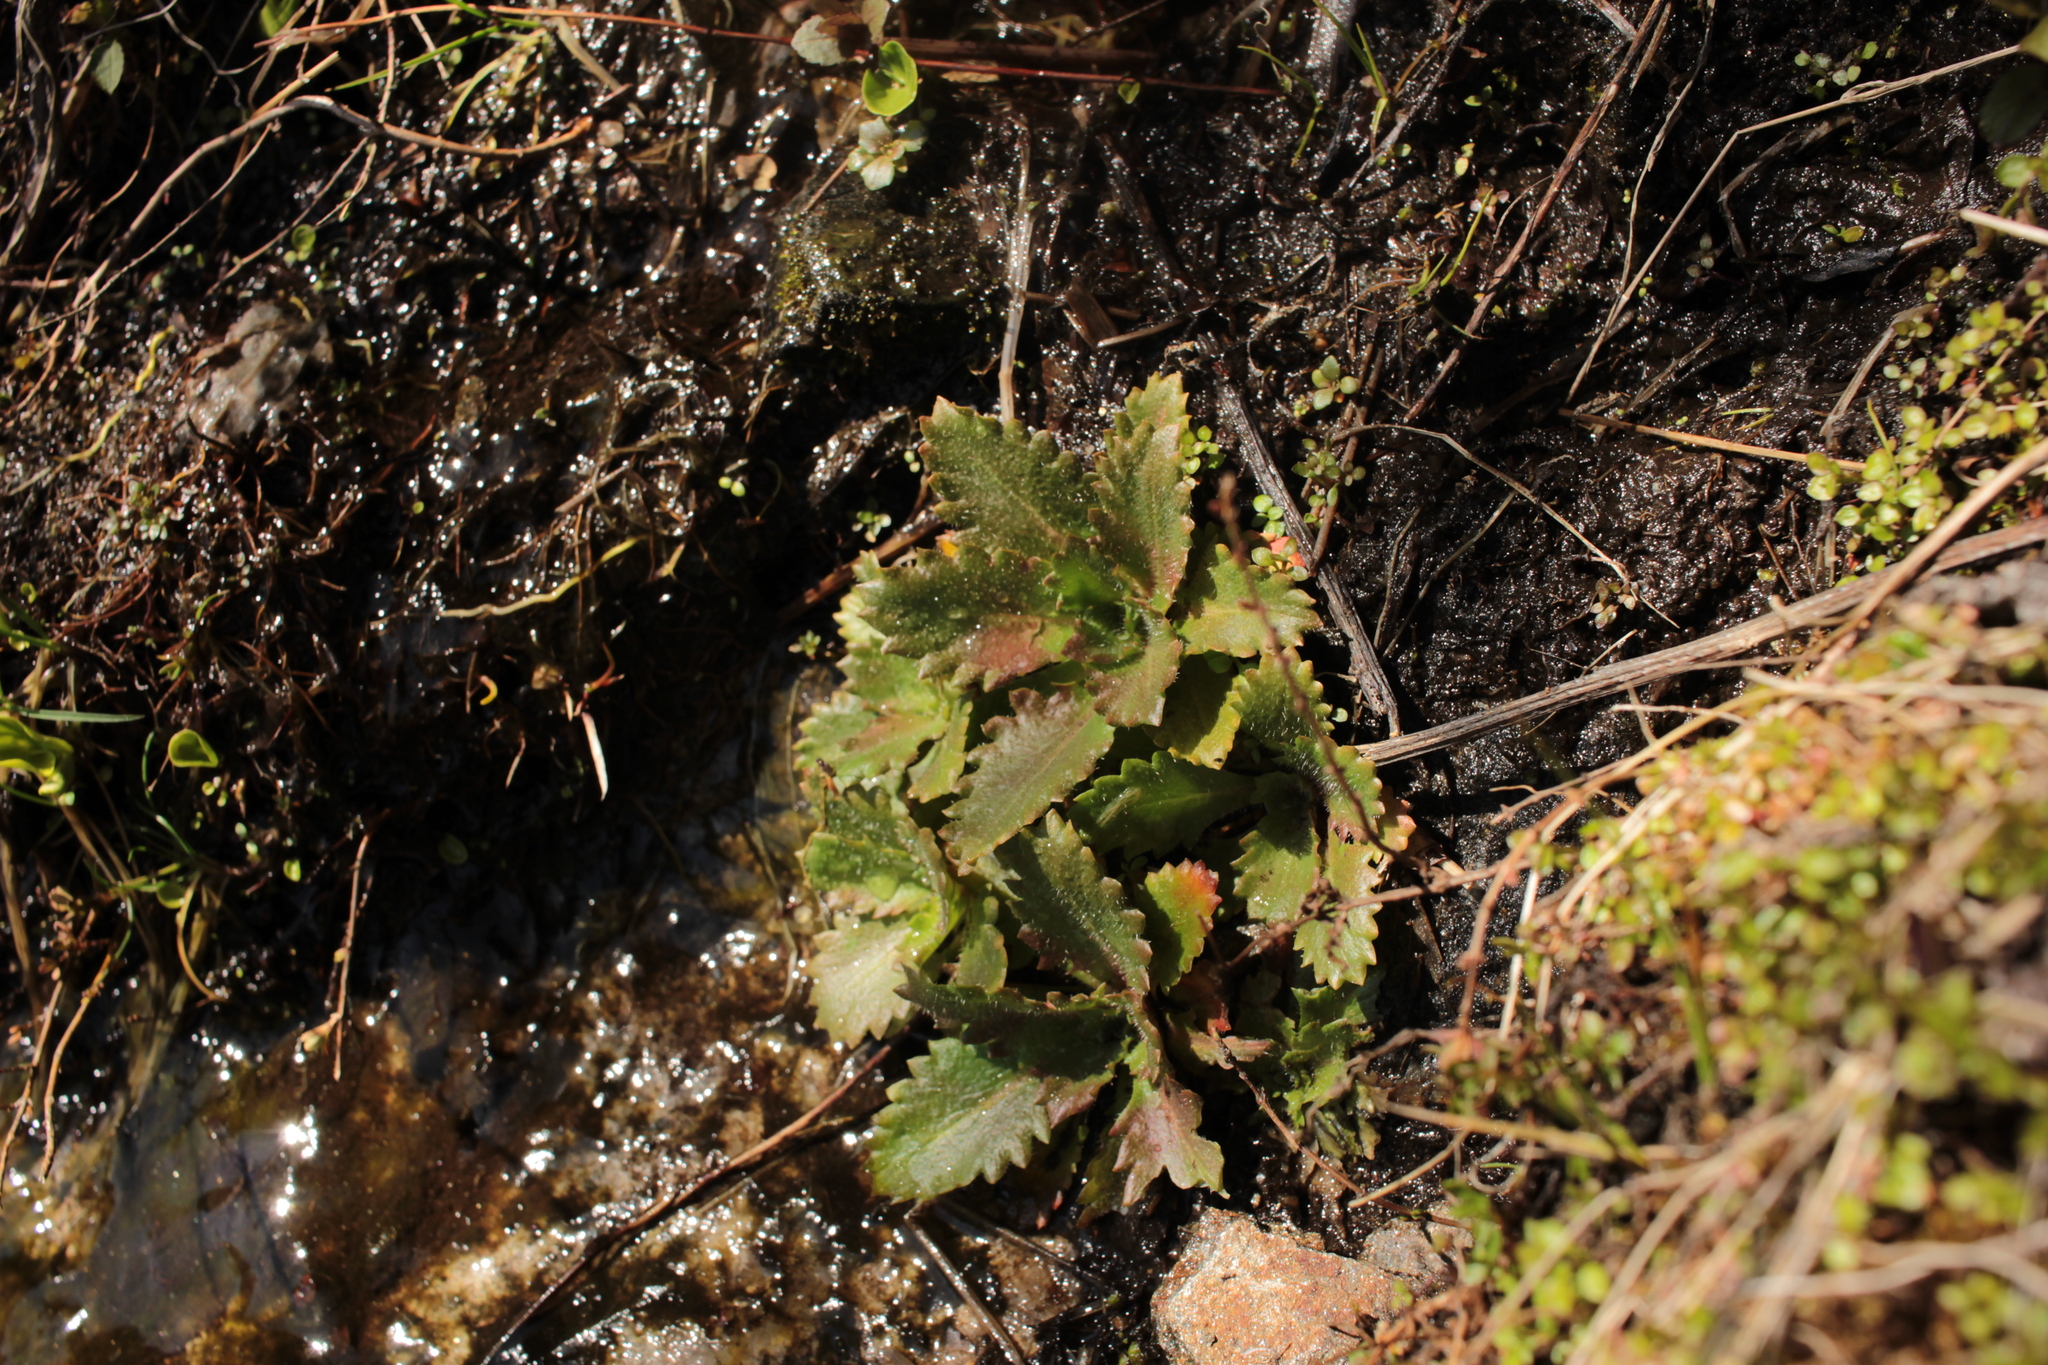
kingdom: Plantae
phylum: Tracheophyta
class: Magnoliopsida
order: Saxifragales
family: Saxifragaceae
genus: Micranthes
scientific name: Micranthes petiolaris
